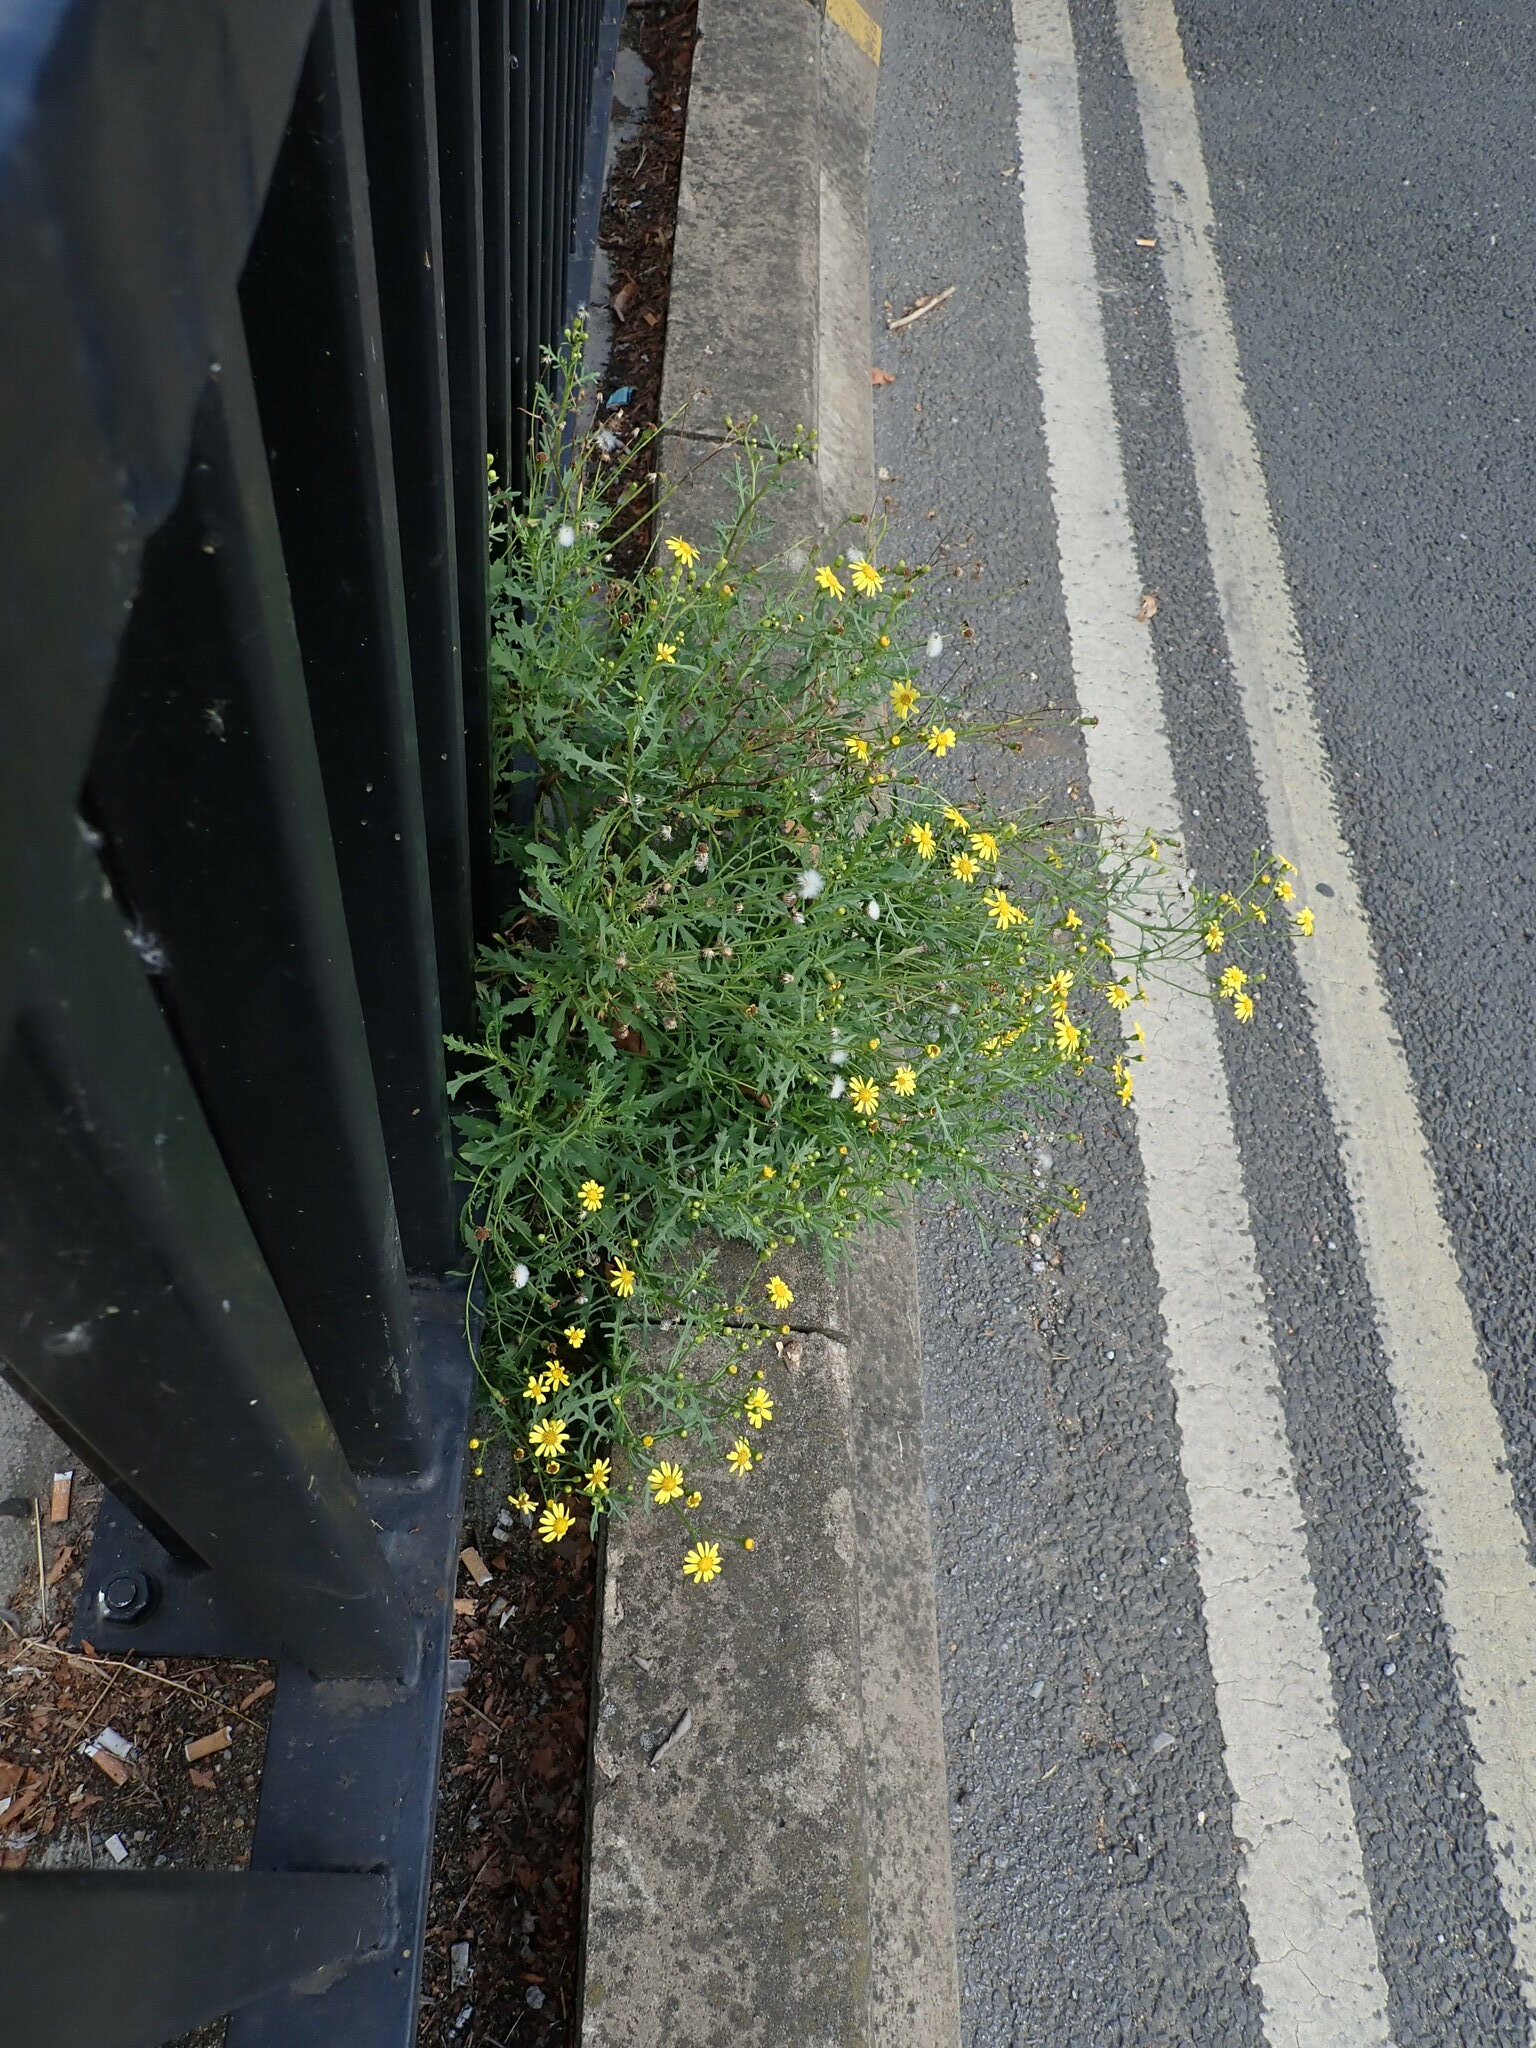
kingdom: Plantae
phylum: Tracheophyta
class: Magnoliopsida
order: Asterales
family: Asteraceae
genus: Senecio
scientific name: Senecio squalidus
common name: Oxford ragwort
